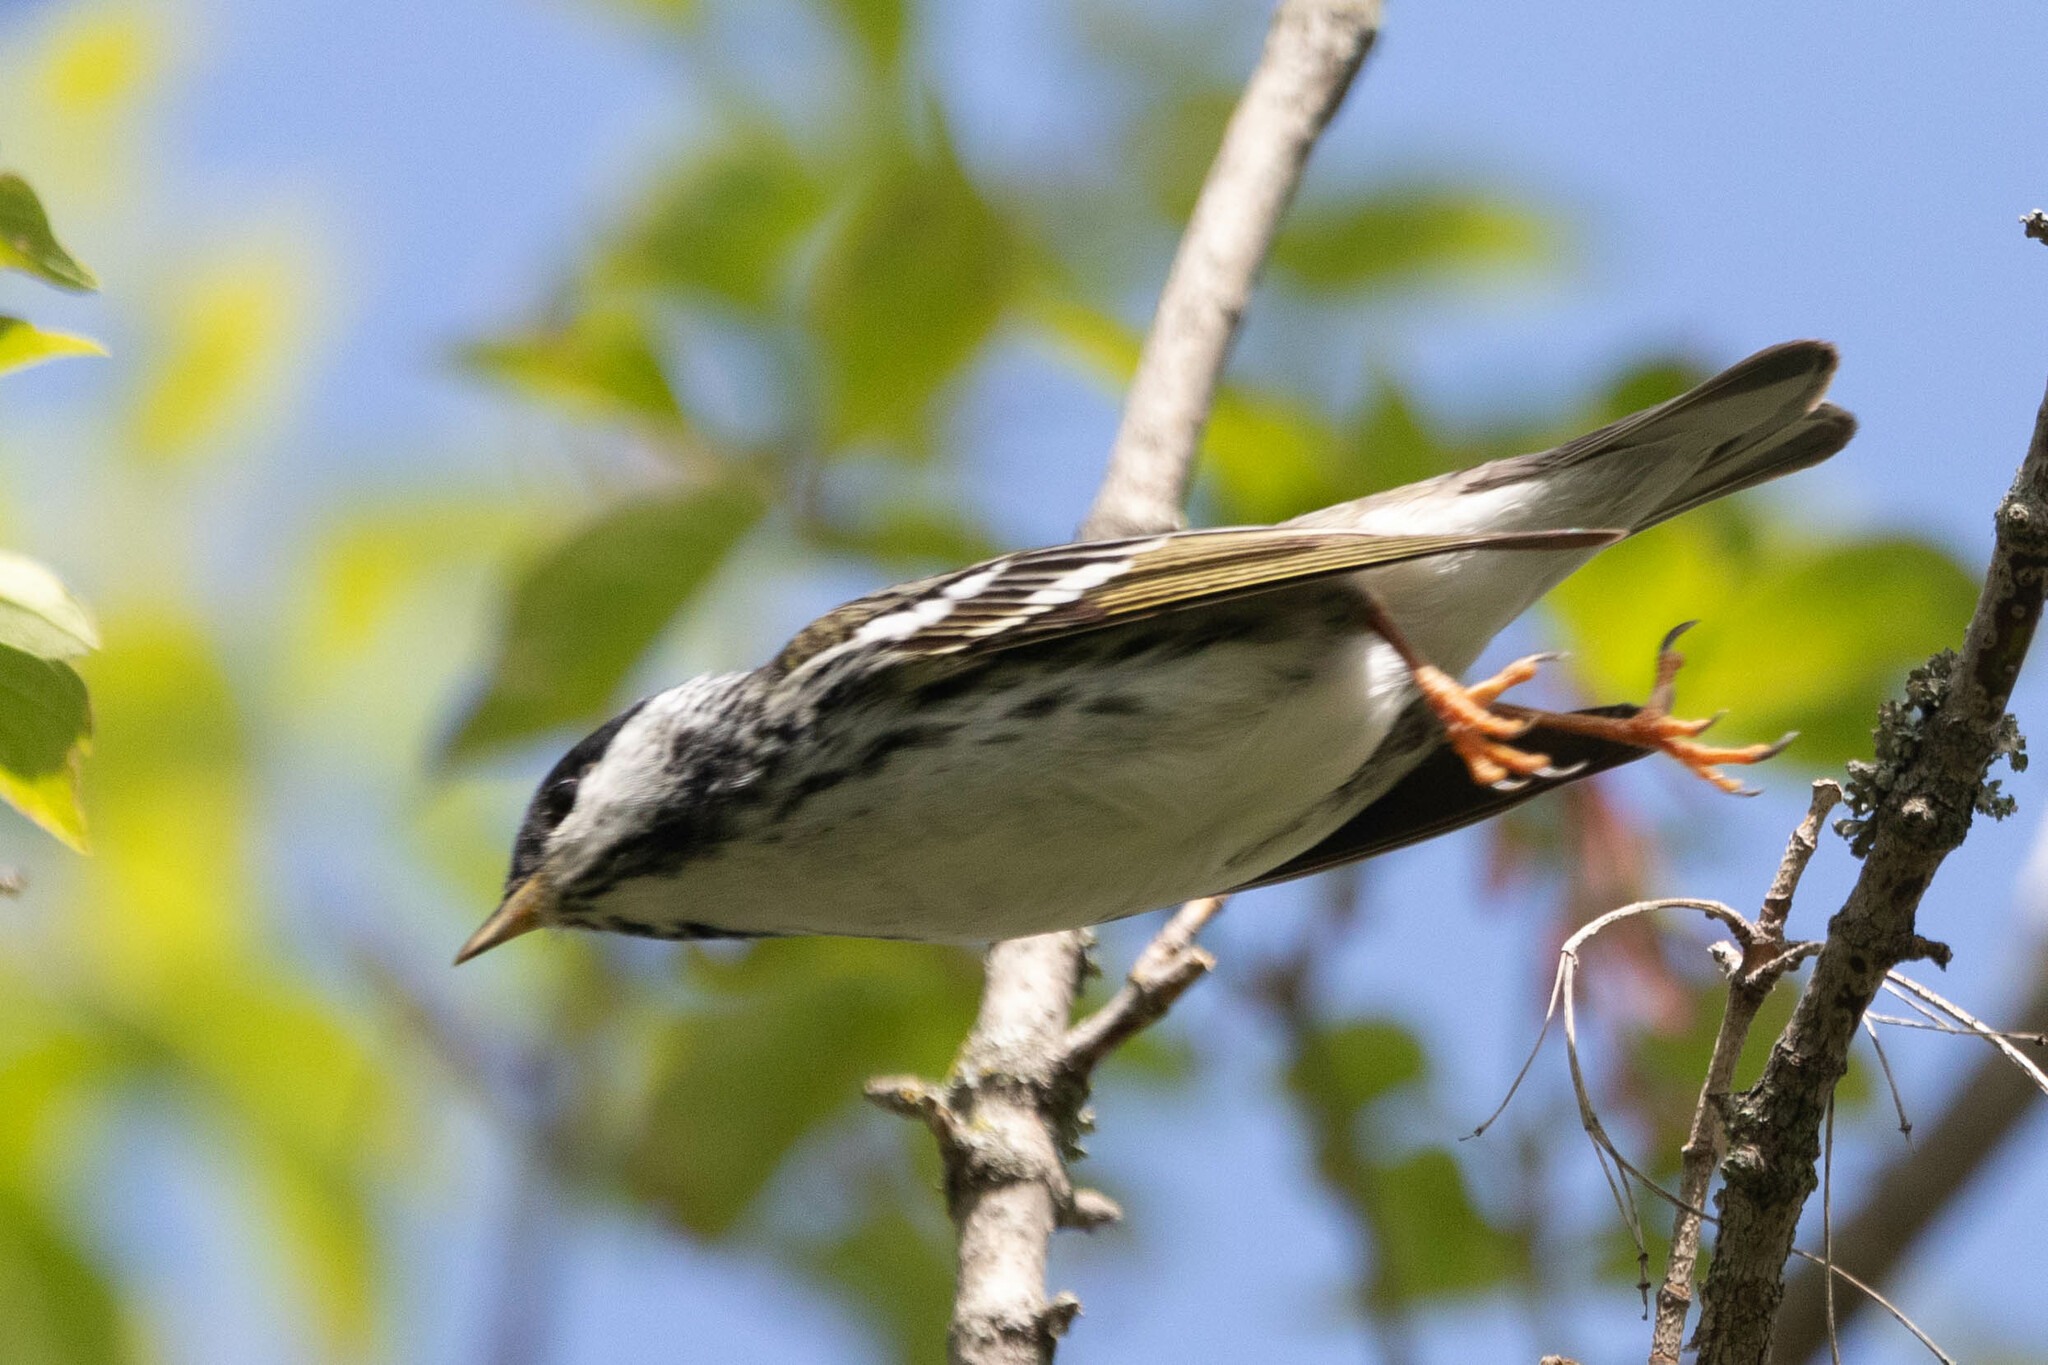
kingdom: Animalia
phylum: Chordata
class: Aves
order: Passeriformes
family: Parulidae
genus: Setophaga
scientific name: Setophaga striata
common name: Blackpoll warbler
